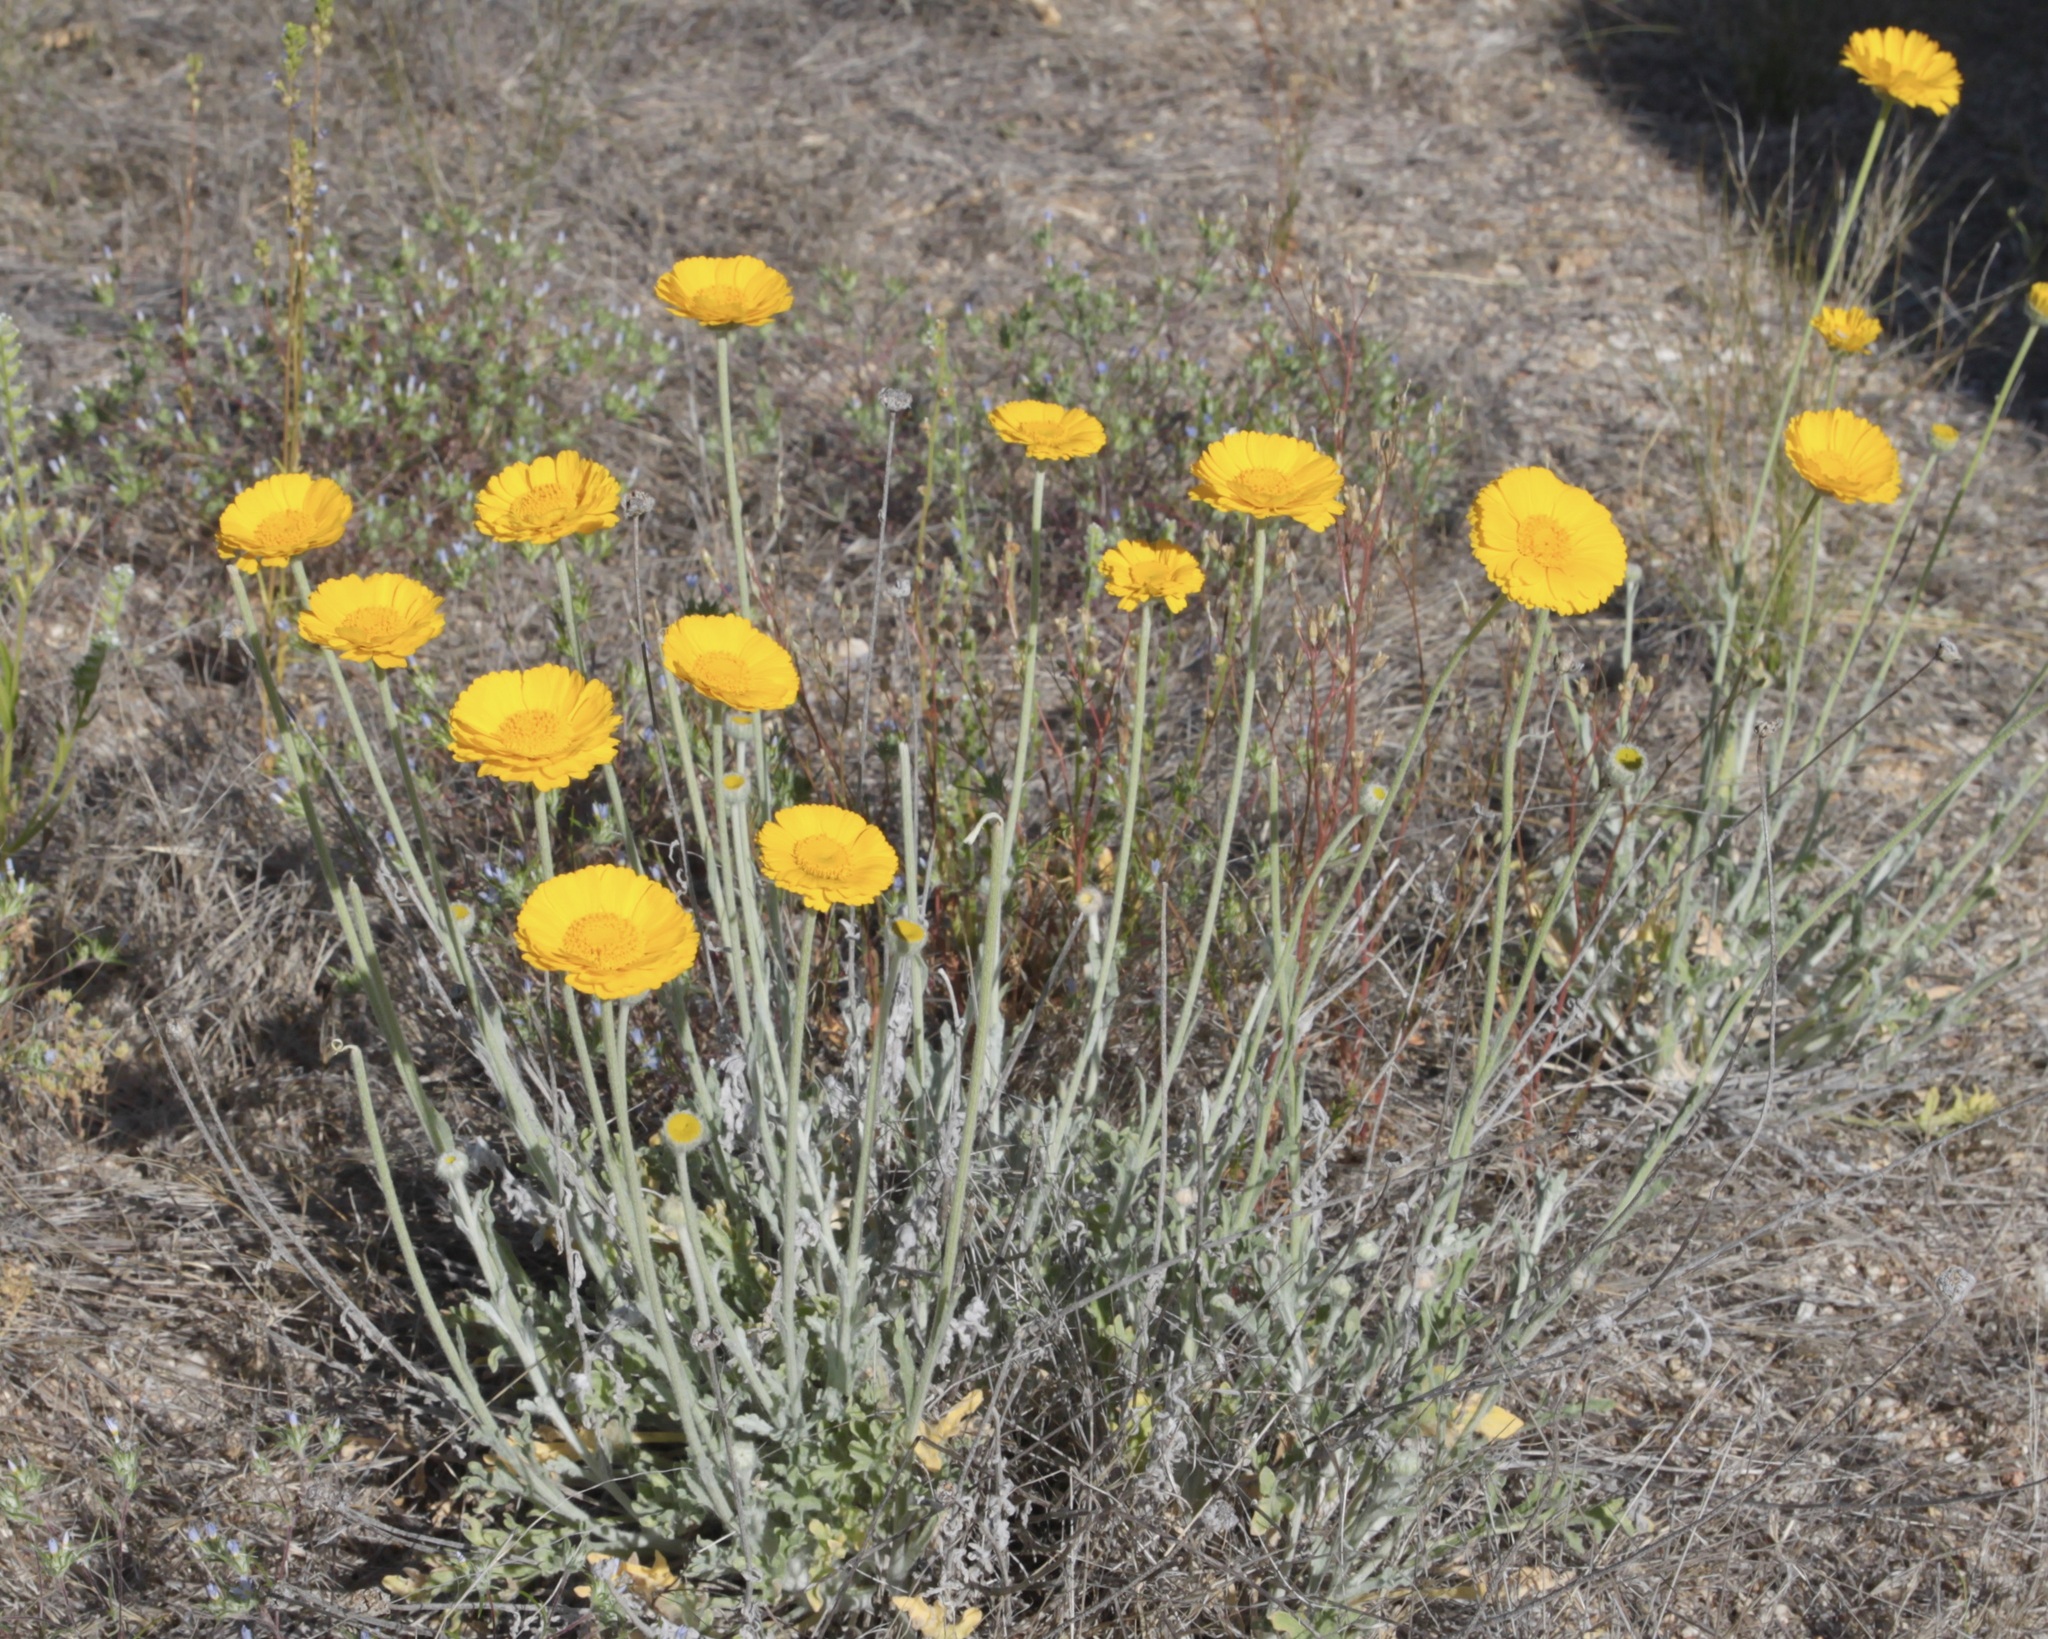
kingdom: Plantae
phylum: Tracheophyta
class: Magnoliopsida
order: Asterales
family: Asteraceae
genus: Baileya
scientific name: Baileya multiradiata
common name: Desert-marigold
